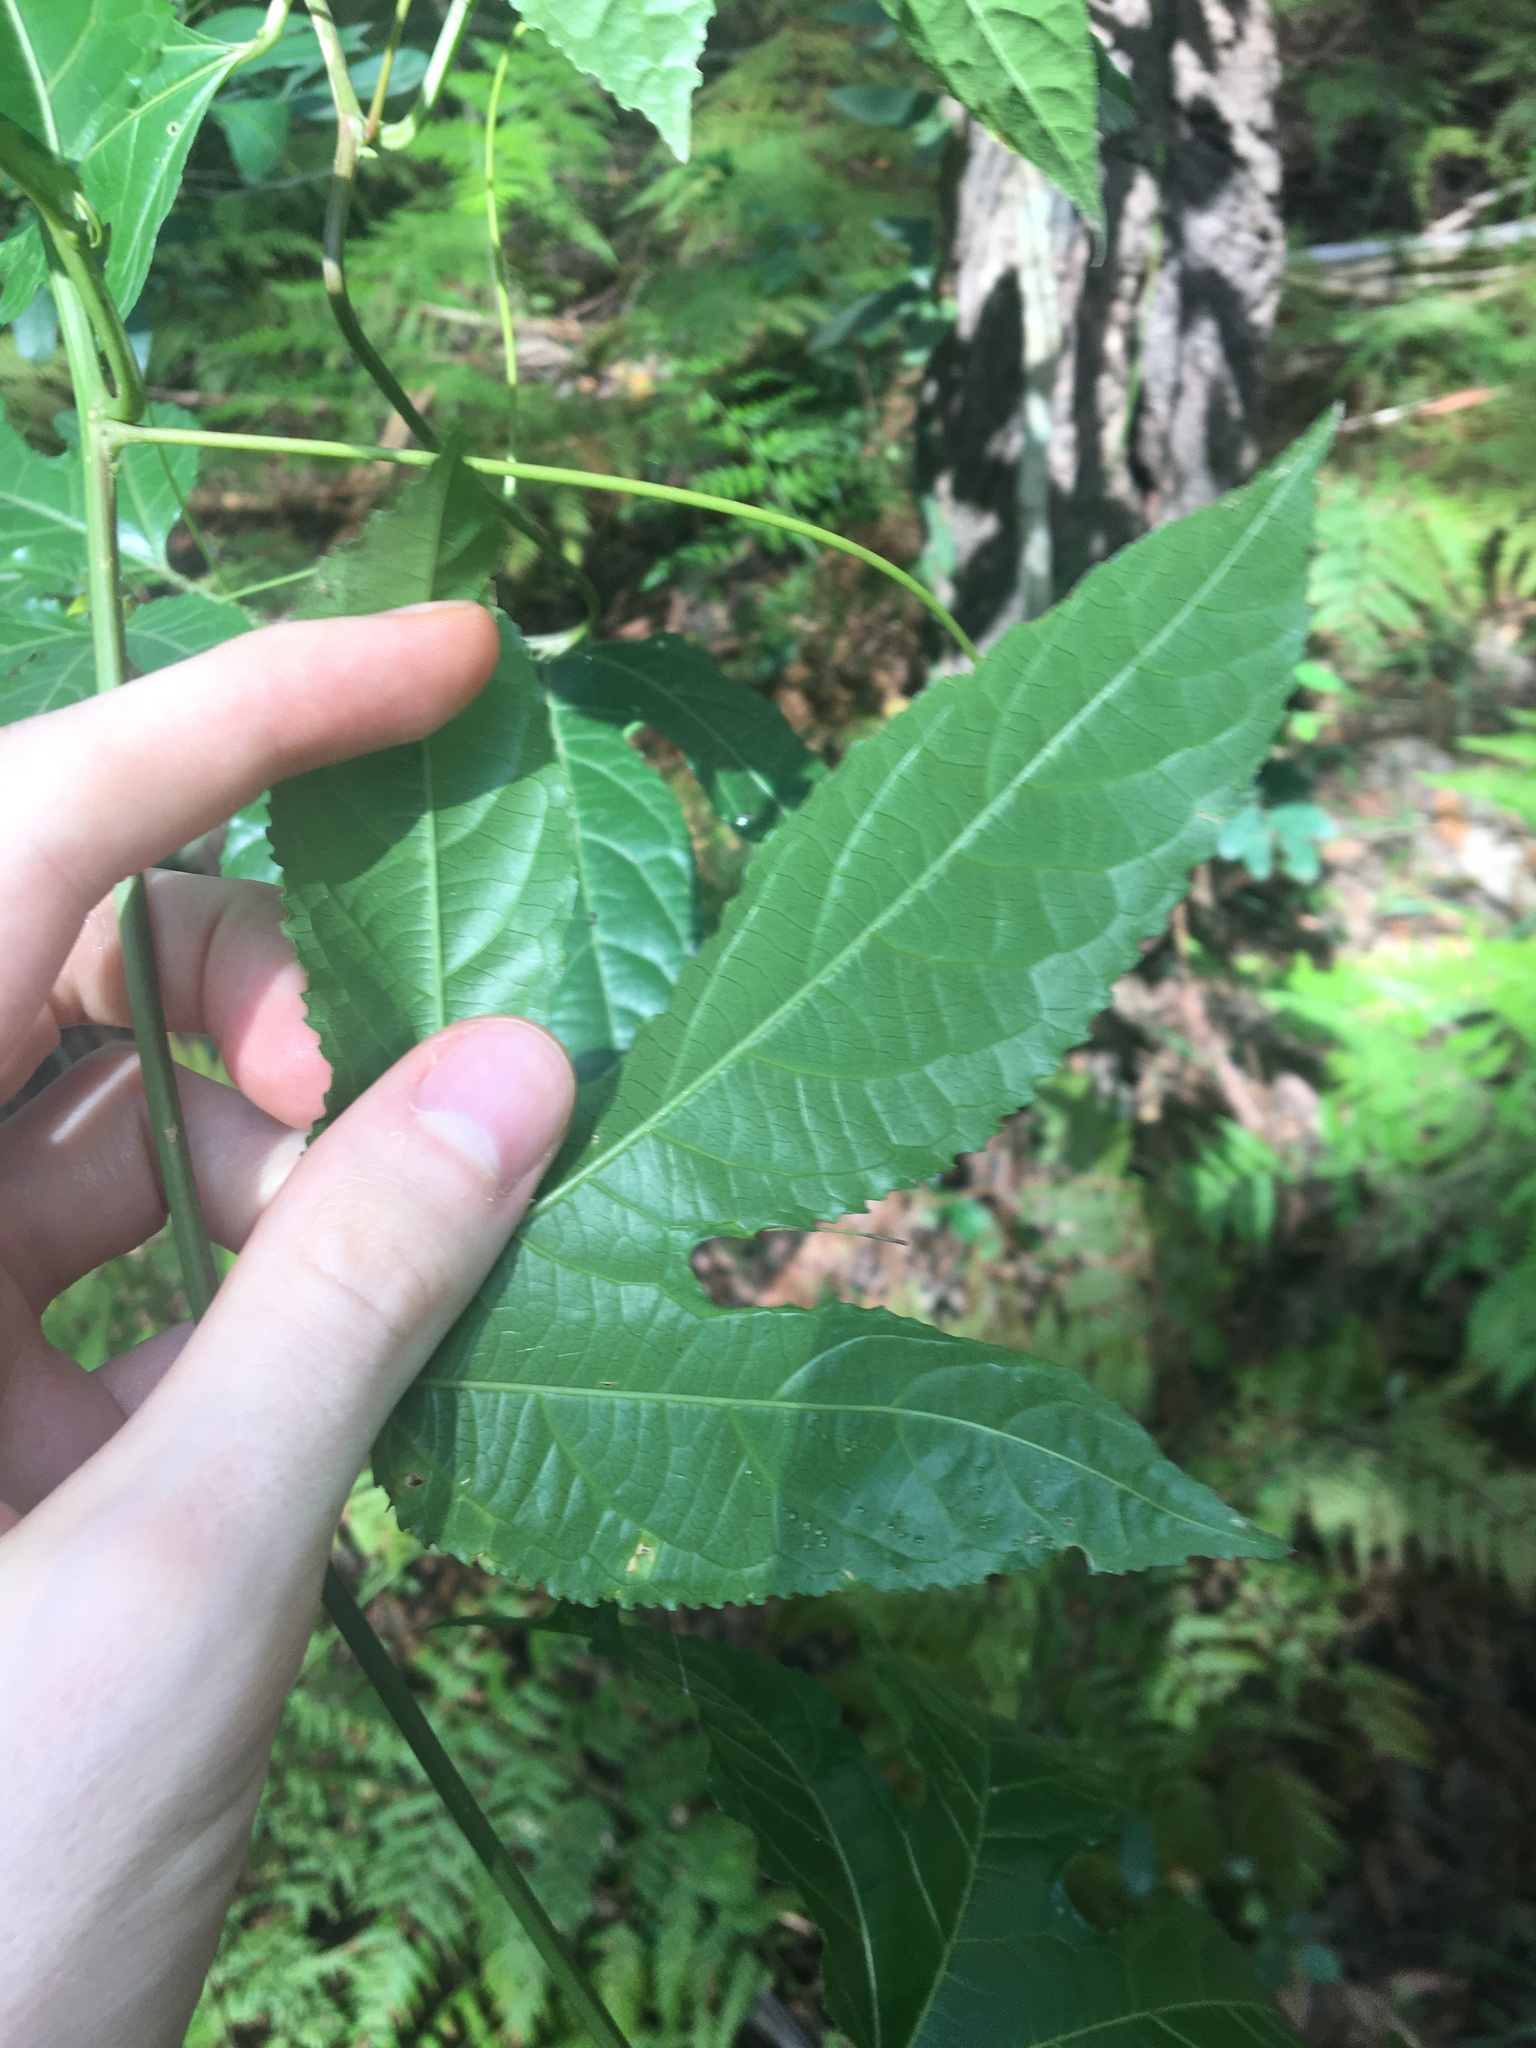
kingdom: Plantae
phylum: Tracheophyta
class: Magnoliopsida
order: Malpighiales
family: Passifloraceae
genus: Passiflora
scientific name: Passiflora edulis
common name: Purple granadilla
